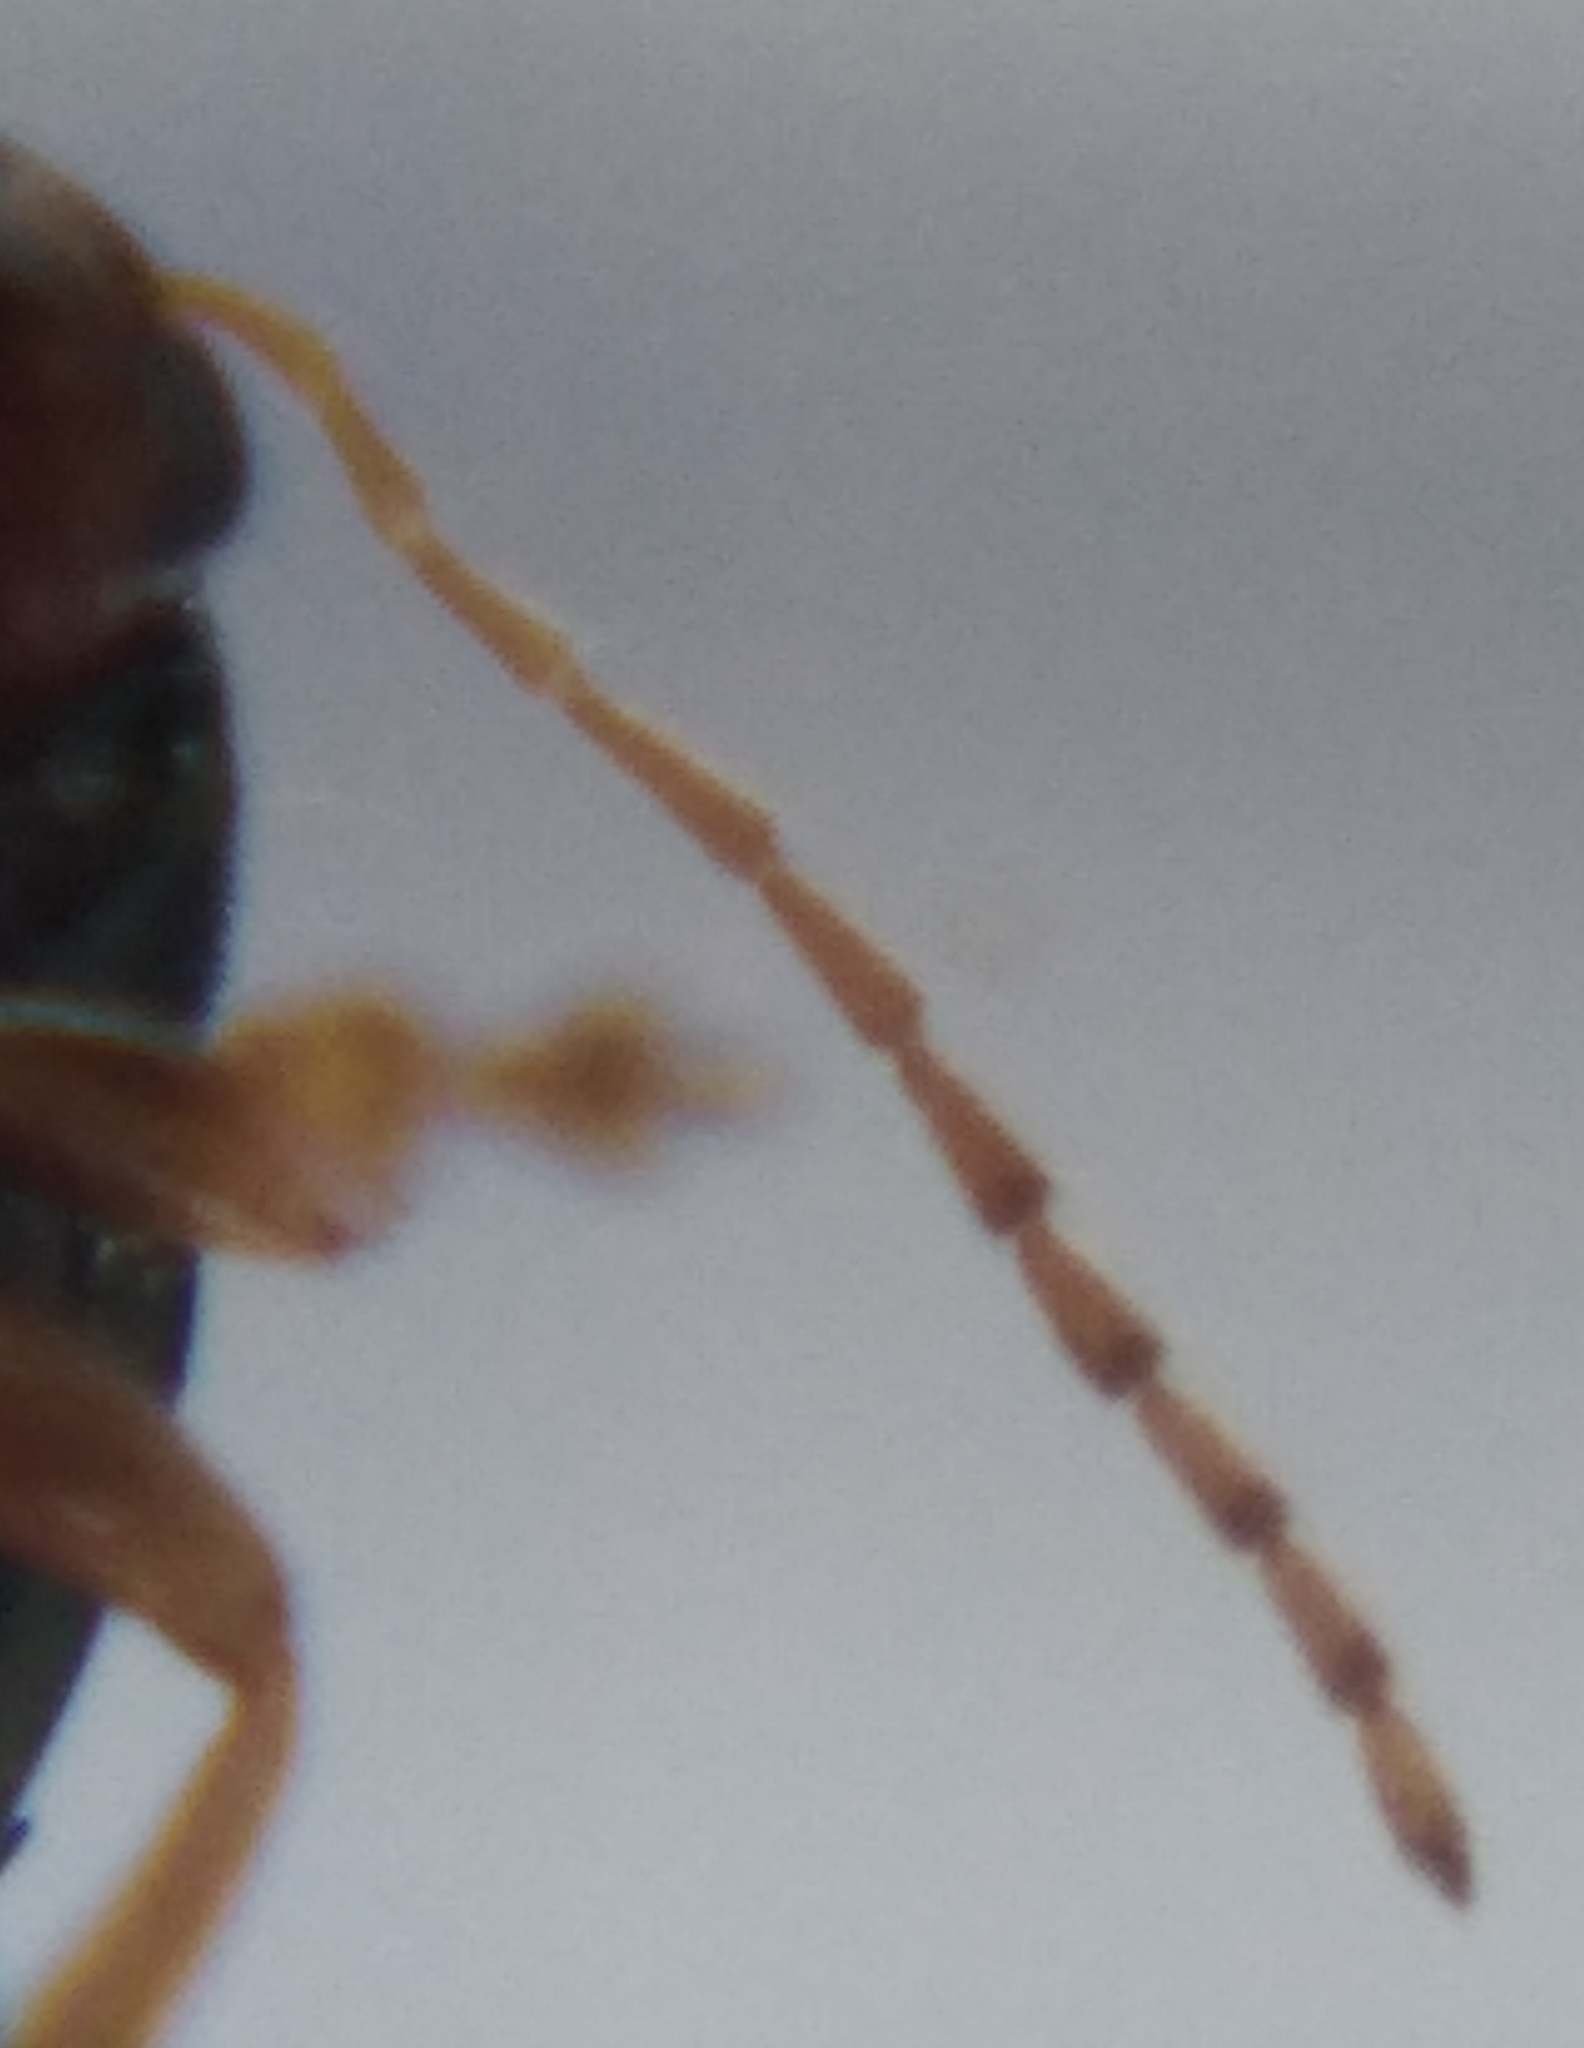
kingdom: Animalia
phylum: Arthropoda
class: Insecta
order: Coleoptera
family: Chrysomelidae
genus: Psylliodes
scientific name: Psylliodes chrysocephalus
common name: Cabbage-stem flea beetle
